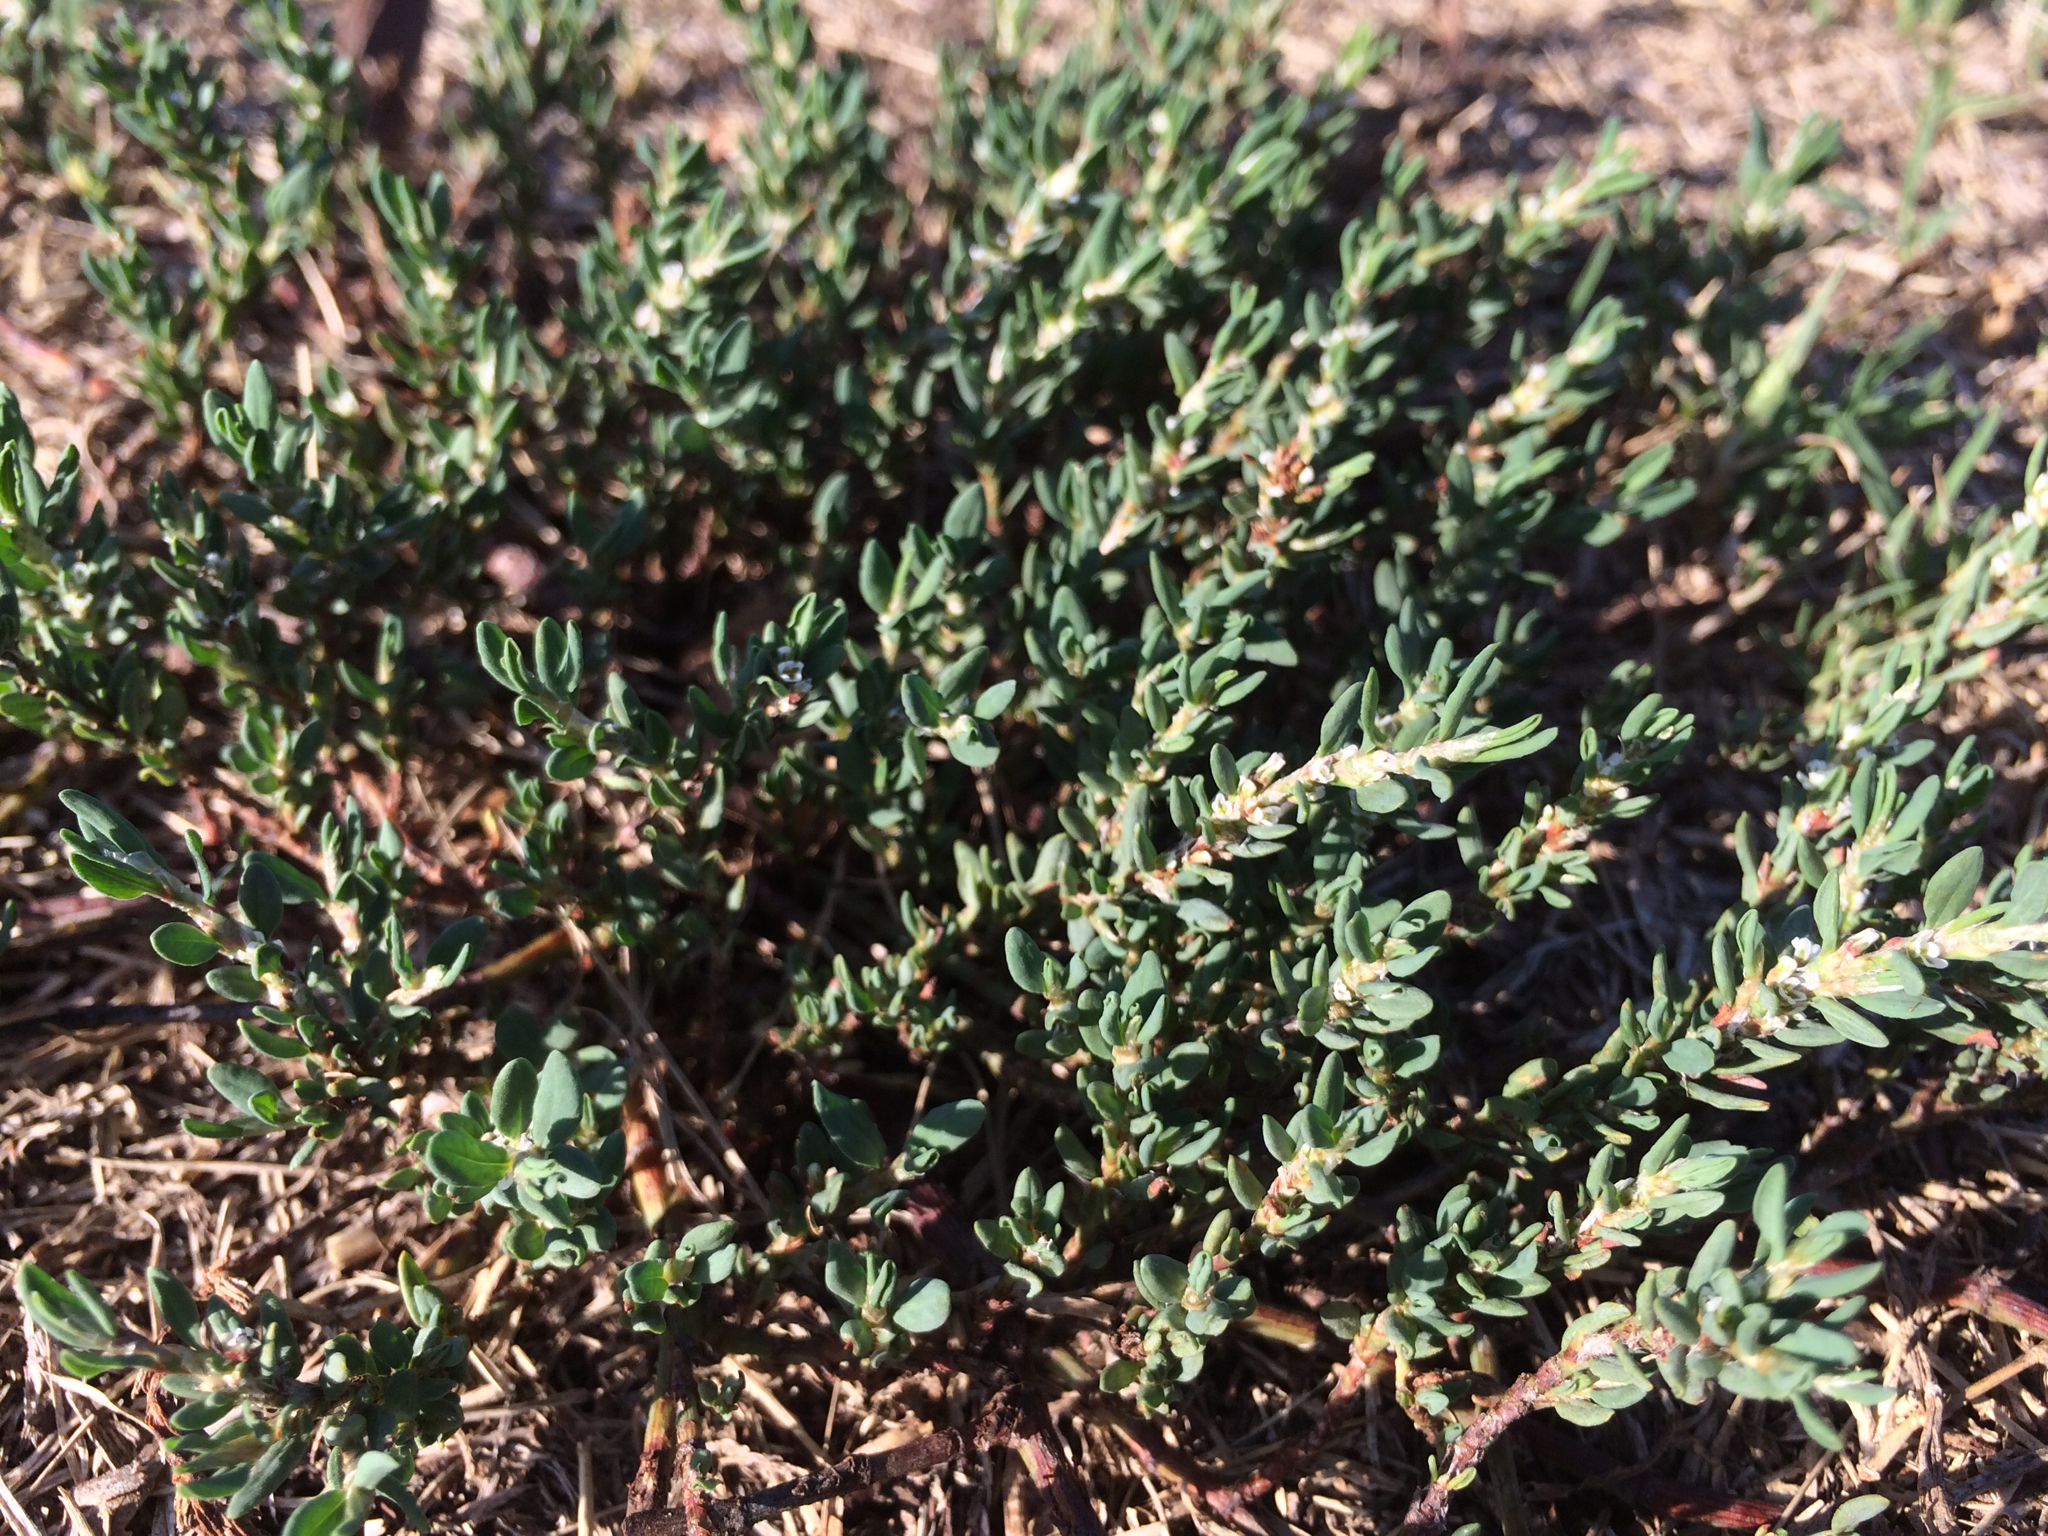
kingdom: Plantae
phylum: Tracheophyta
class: Magnoliopsida
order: Caryophyllales
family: Polygonaceae
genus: Polygonum
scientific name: Polygonum aviculare
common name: Prostrate knotweed
